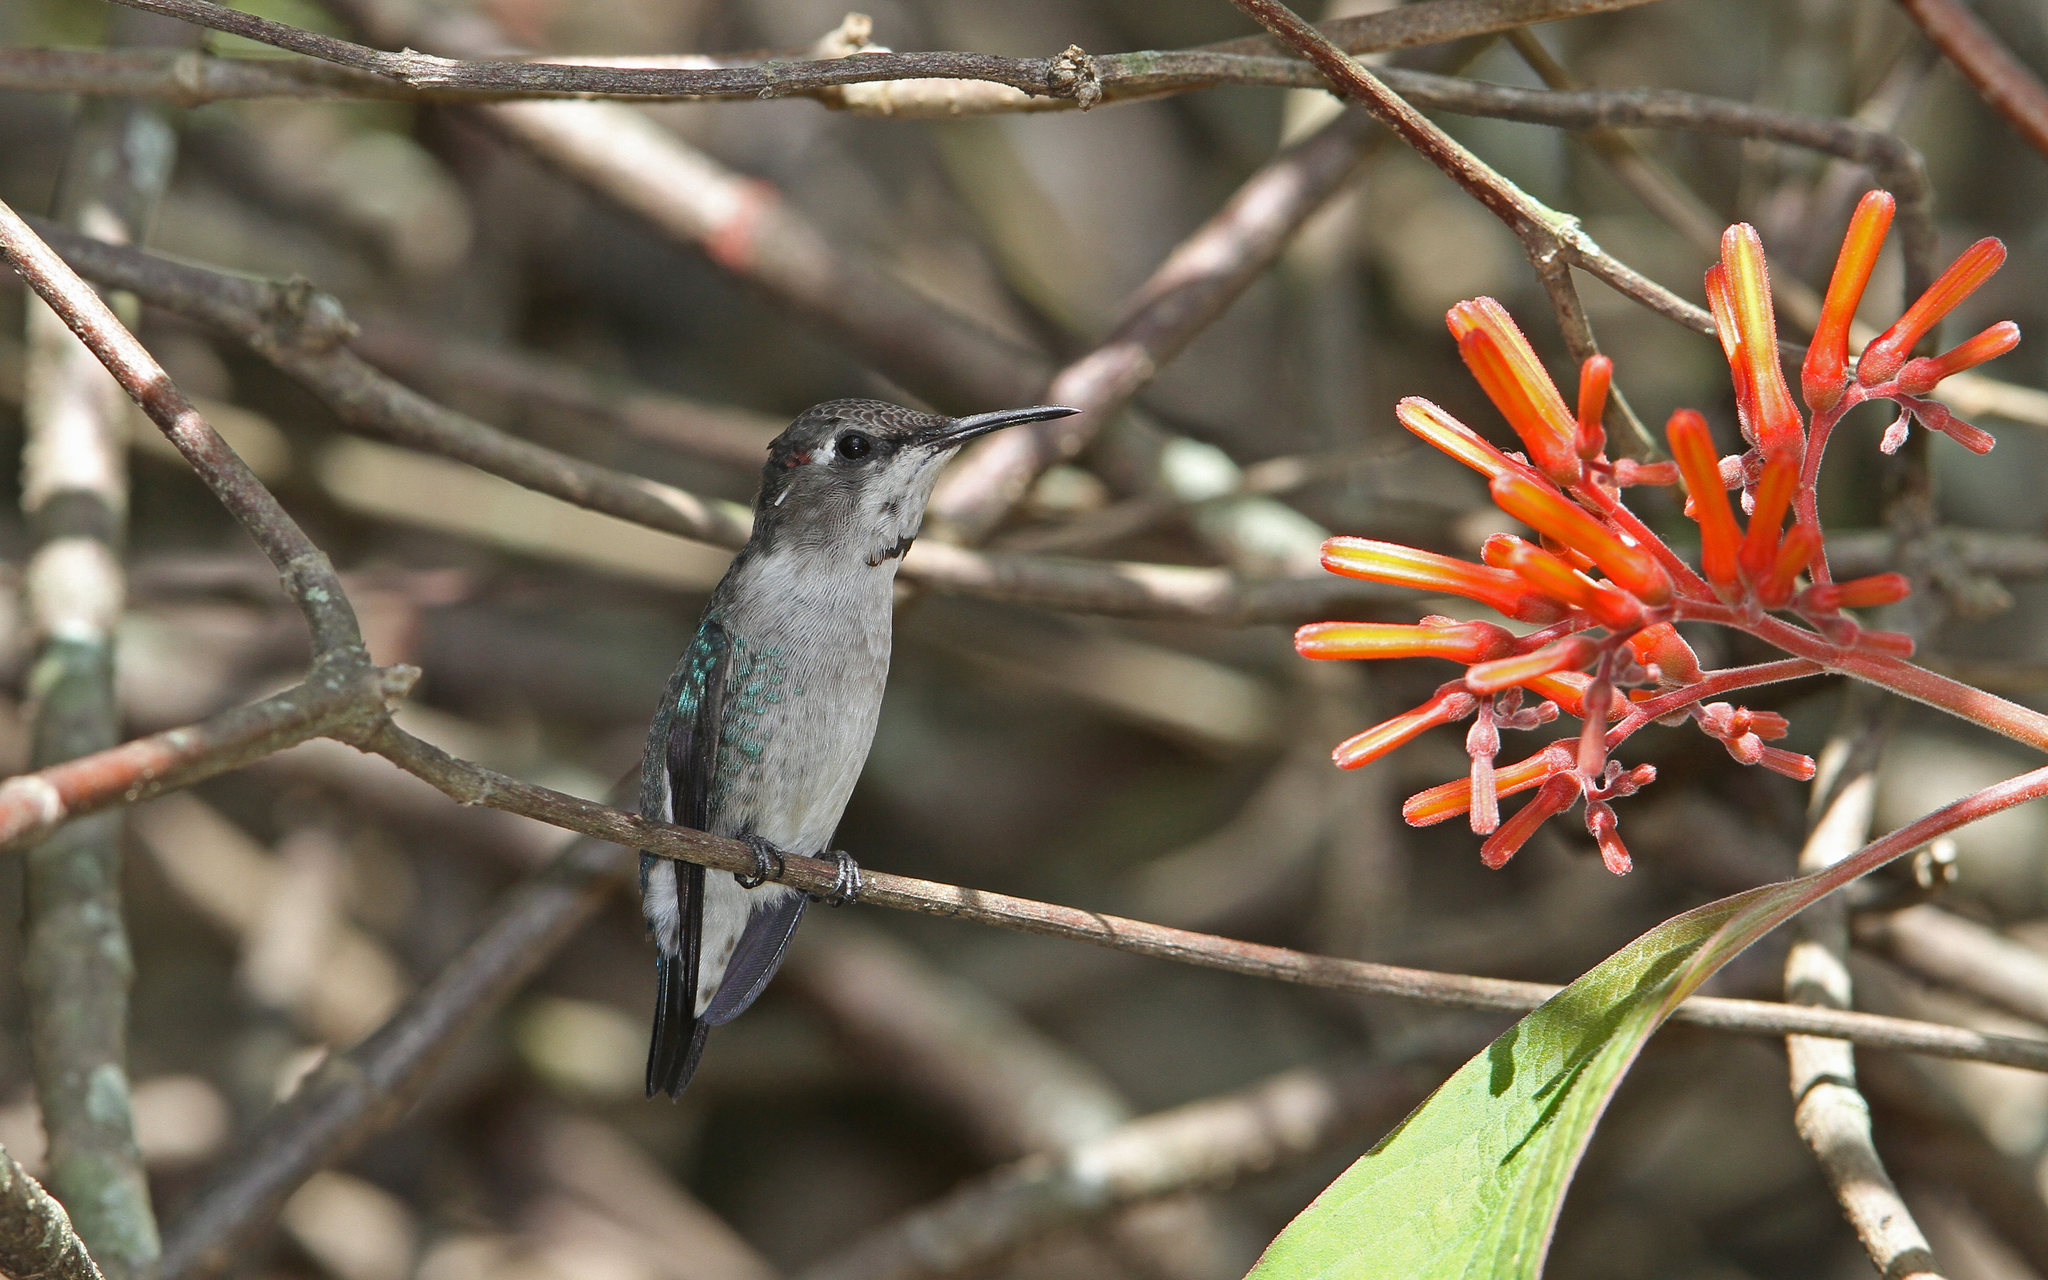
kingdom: Animalia
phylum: Chordata
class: Aves
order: Apodiformes
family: Trochilidae
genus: Mellisuga
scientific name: Mellisuga helenae
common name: Bee hummingbird
